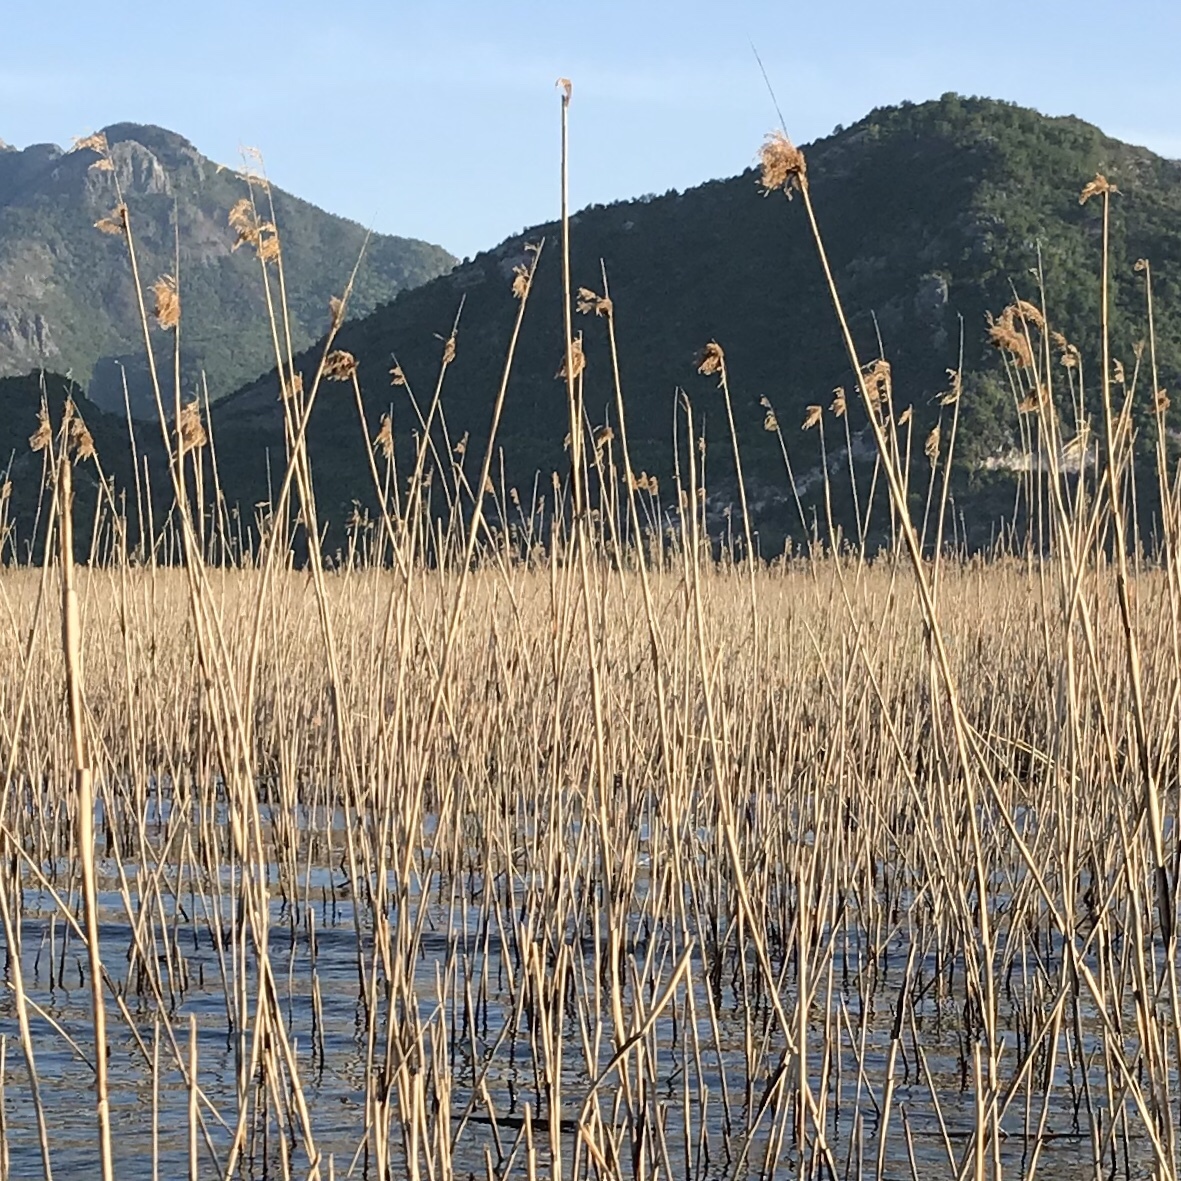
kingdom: Plantae
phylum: Tracheophyta
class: Liliopsida
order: Poales
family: Poaceae
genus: Phragmites
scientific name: Phragmites australis
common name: Common reed
